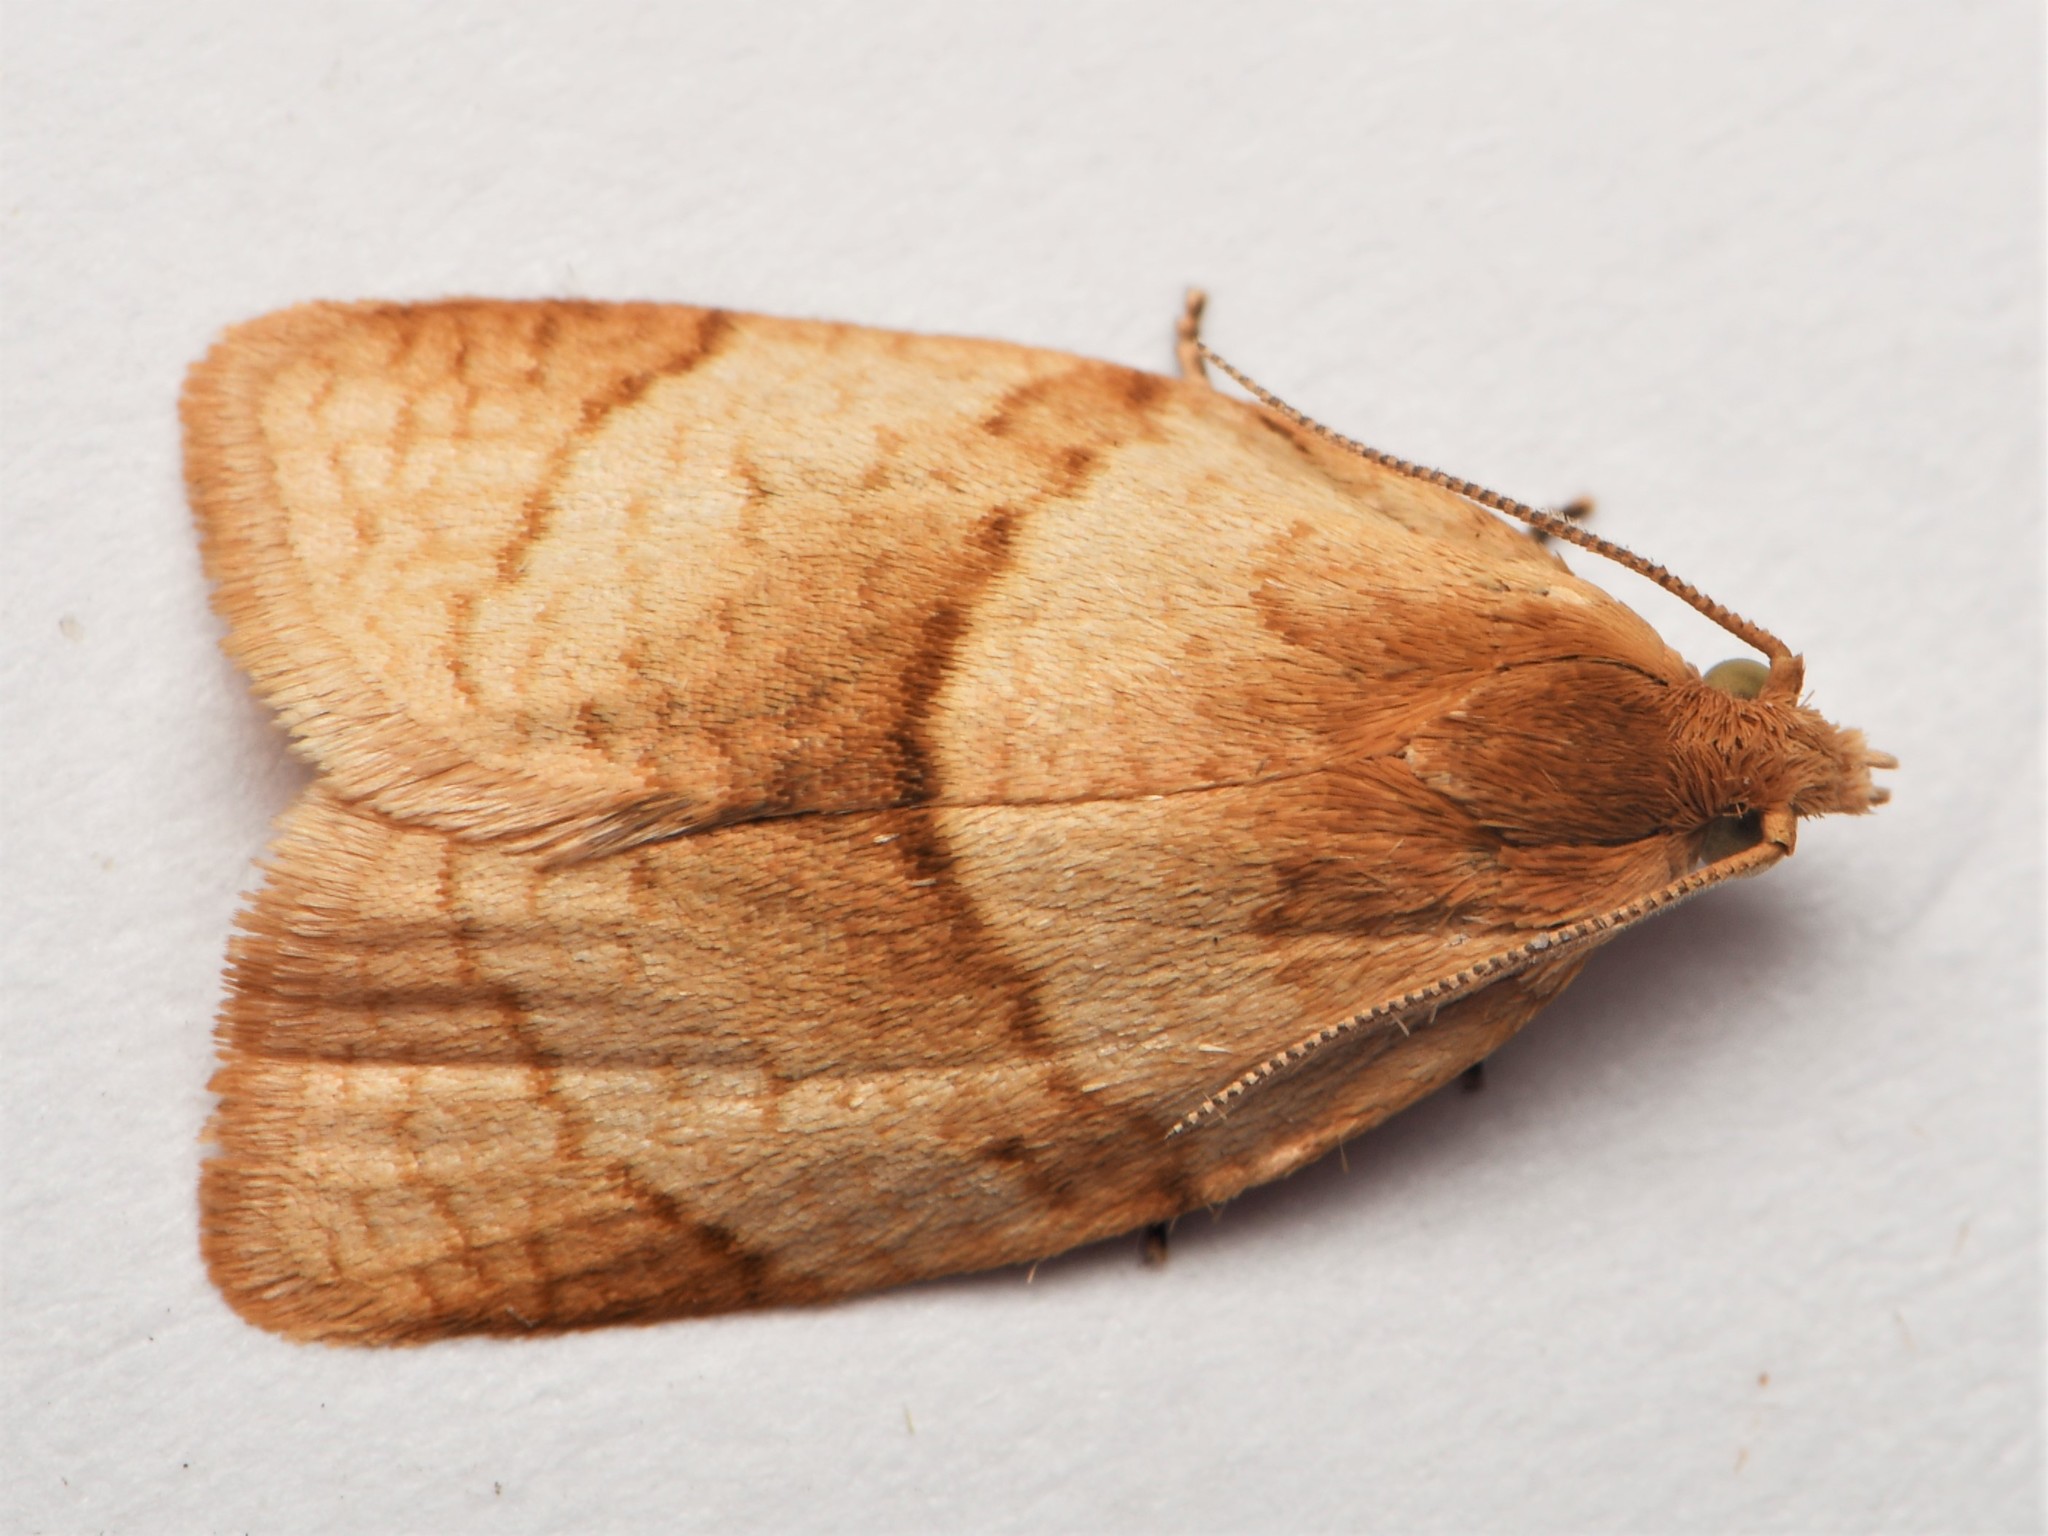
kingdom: Animalia
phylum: Arthropoda
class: Insecta
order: Lepidoptera
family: Tortricidae
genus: Clepsis
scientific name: Clepsis rurinana
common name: Pale twist
